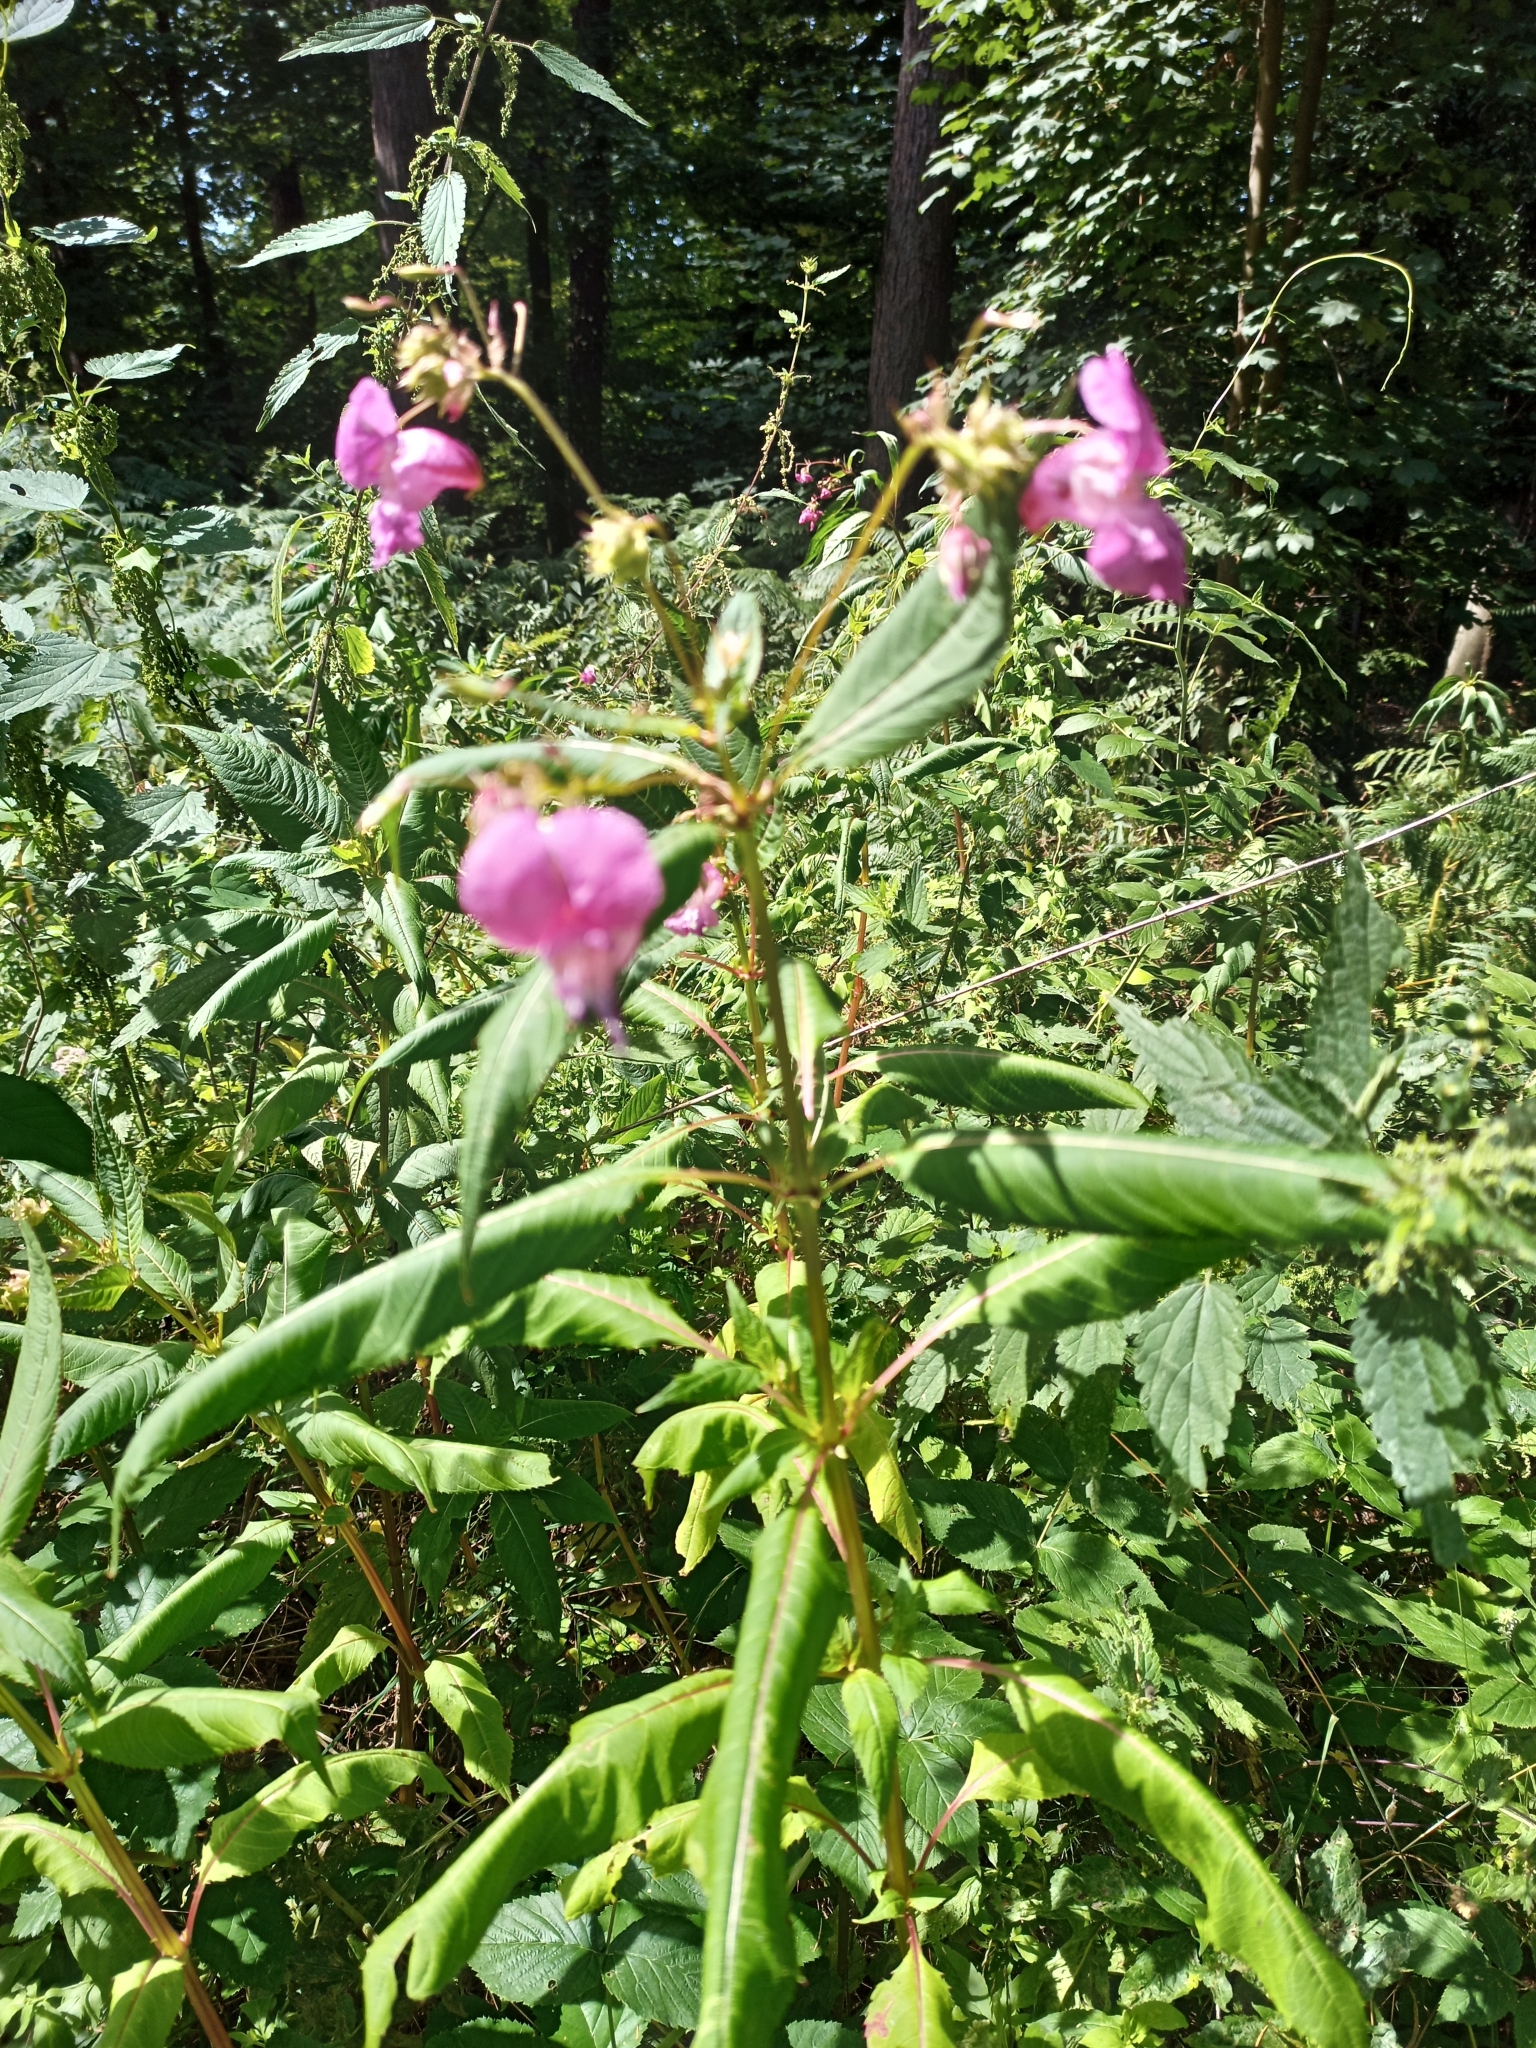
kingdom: Plantae
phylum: Tracheophyta
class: Magnoliopsida
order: Ericales
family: Balsaminaceae
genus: Impatiens
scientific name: Impatiens glandulifera
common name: Himalayan balsam
